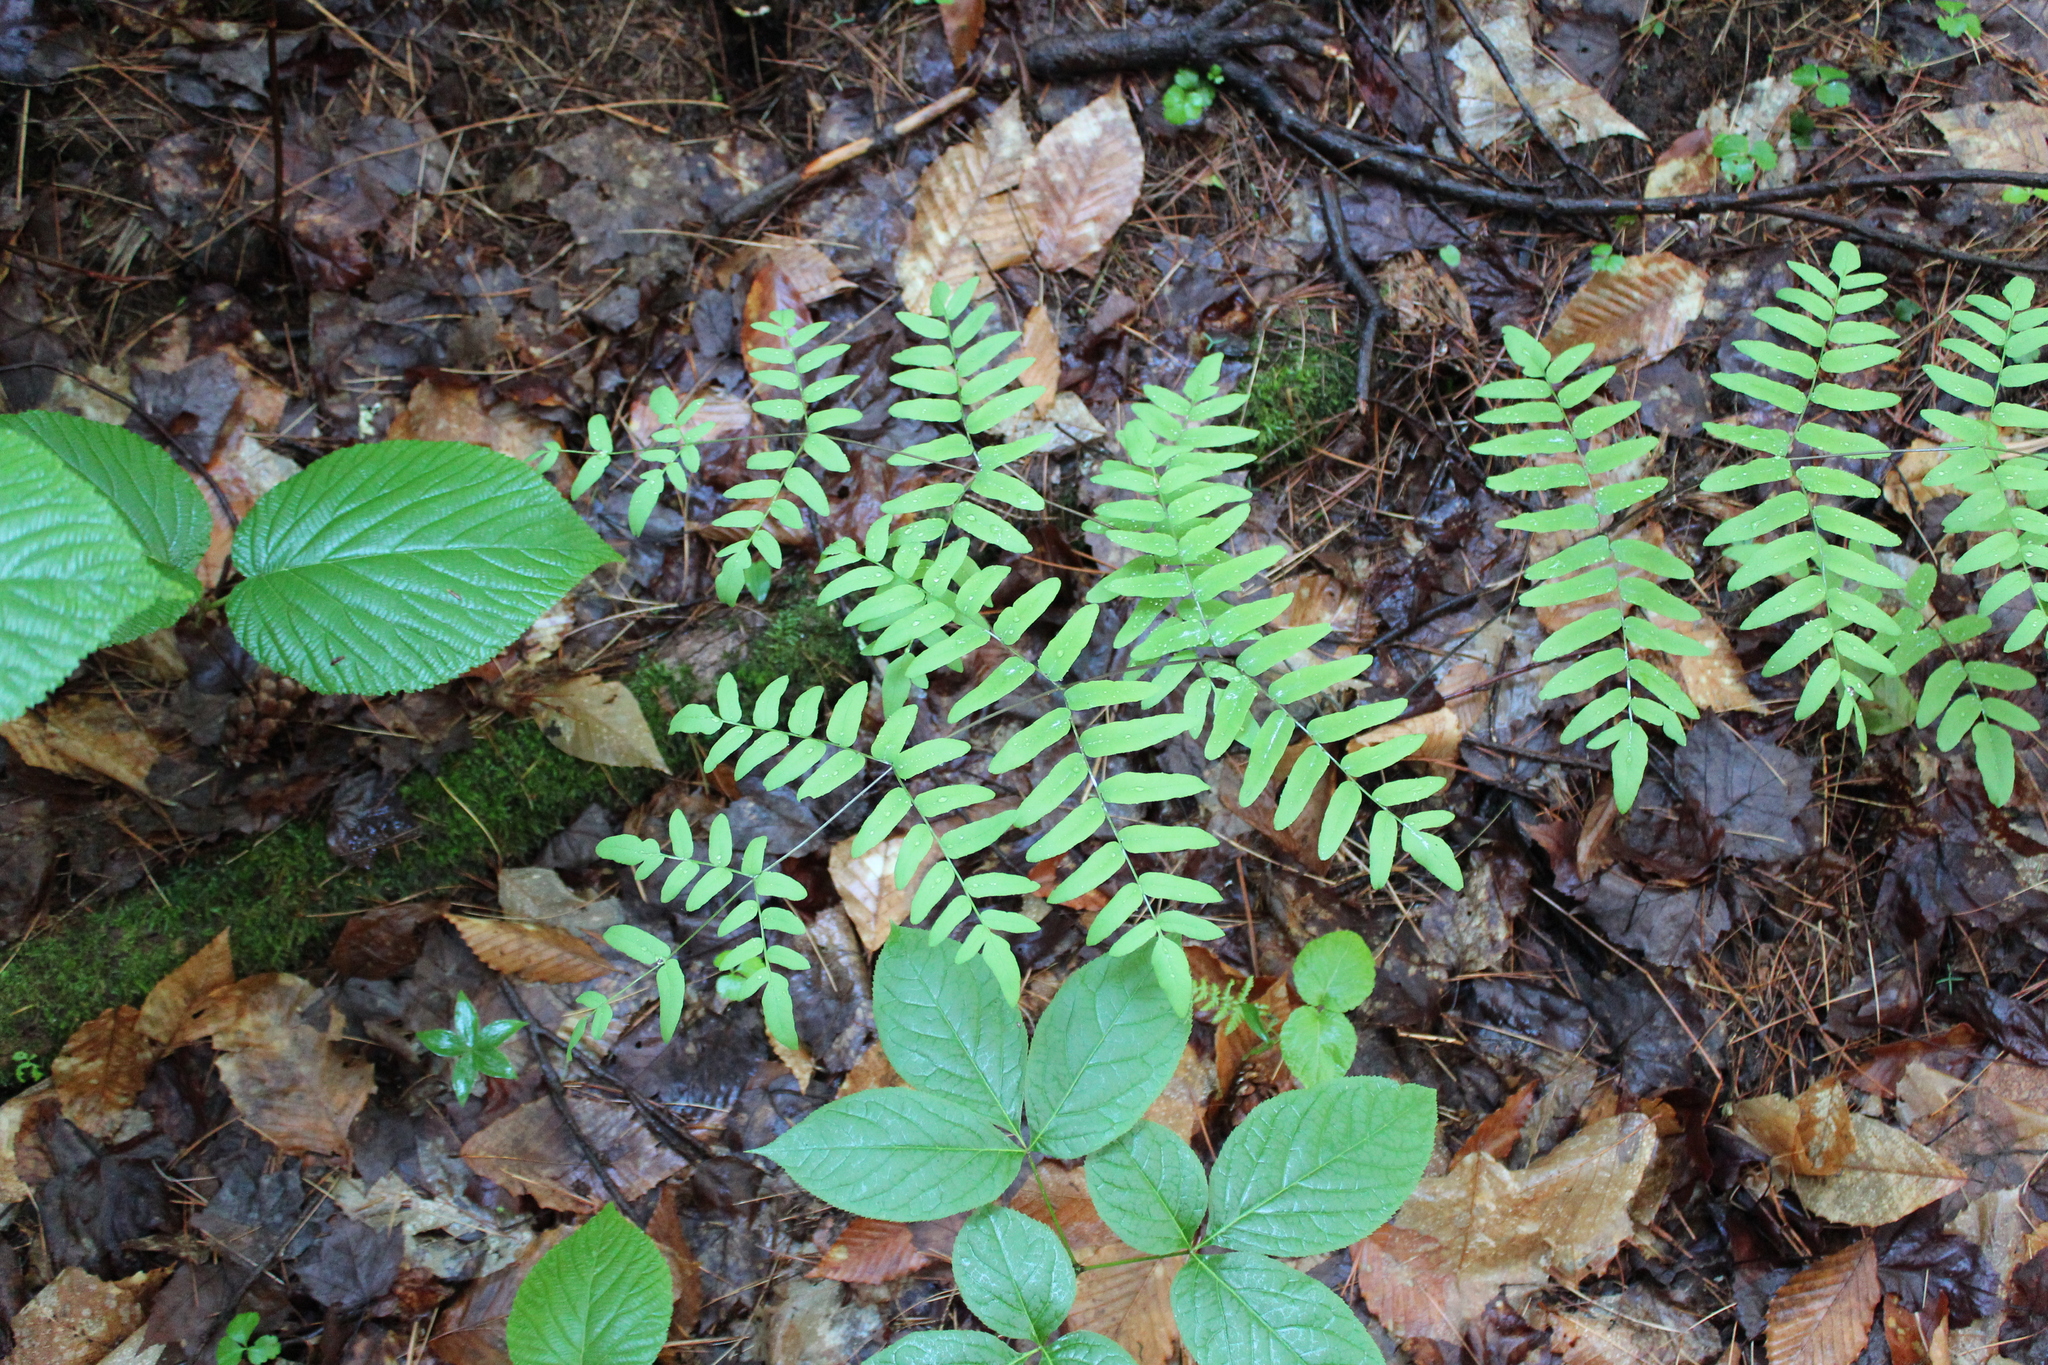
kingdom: Plantae
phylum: Tracheophyta
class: Polypodiopsida
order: Osmundales
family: Osmundaceae
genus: Osmunda
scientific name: Osmunda spectabilis
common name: American royal fern
